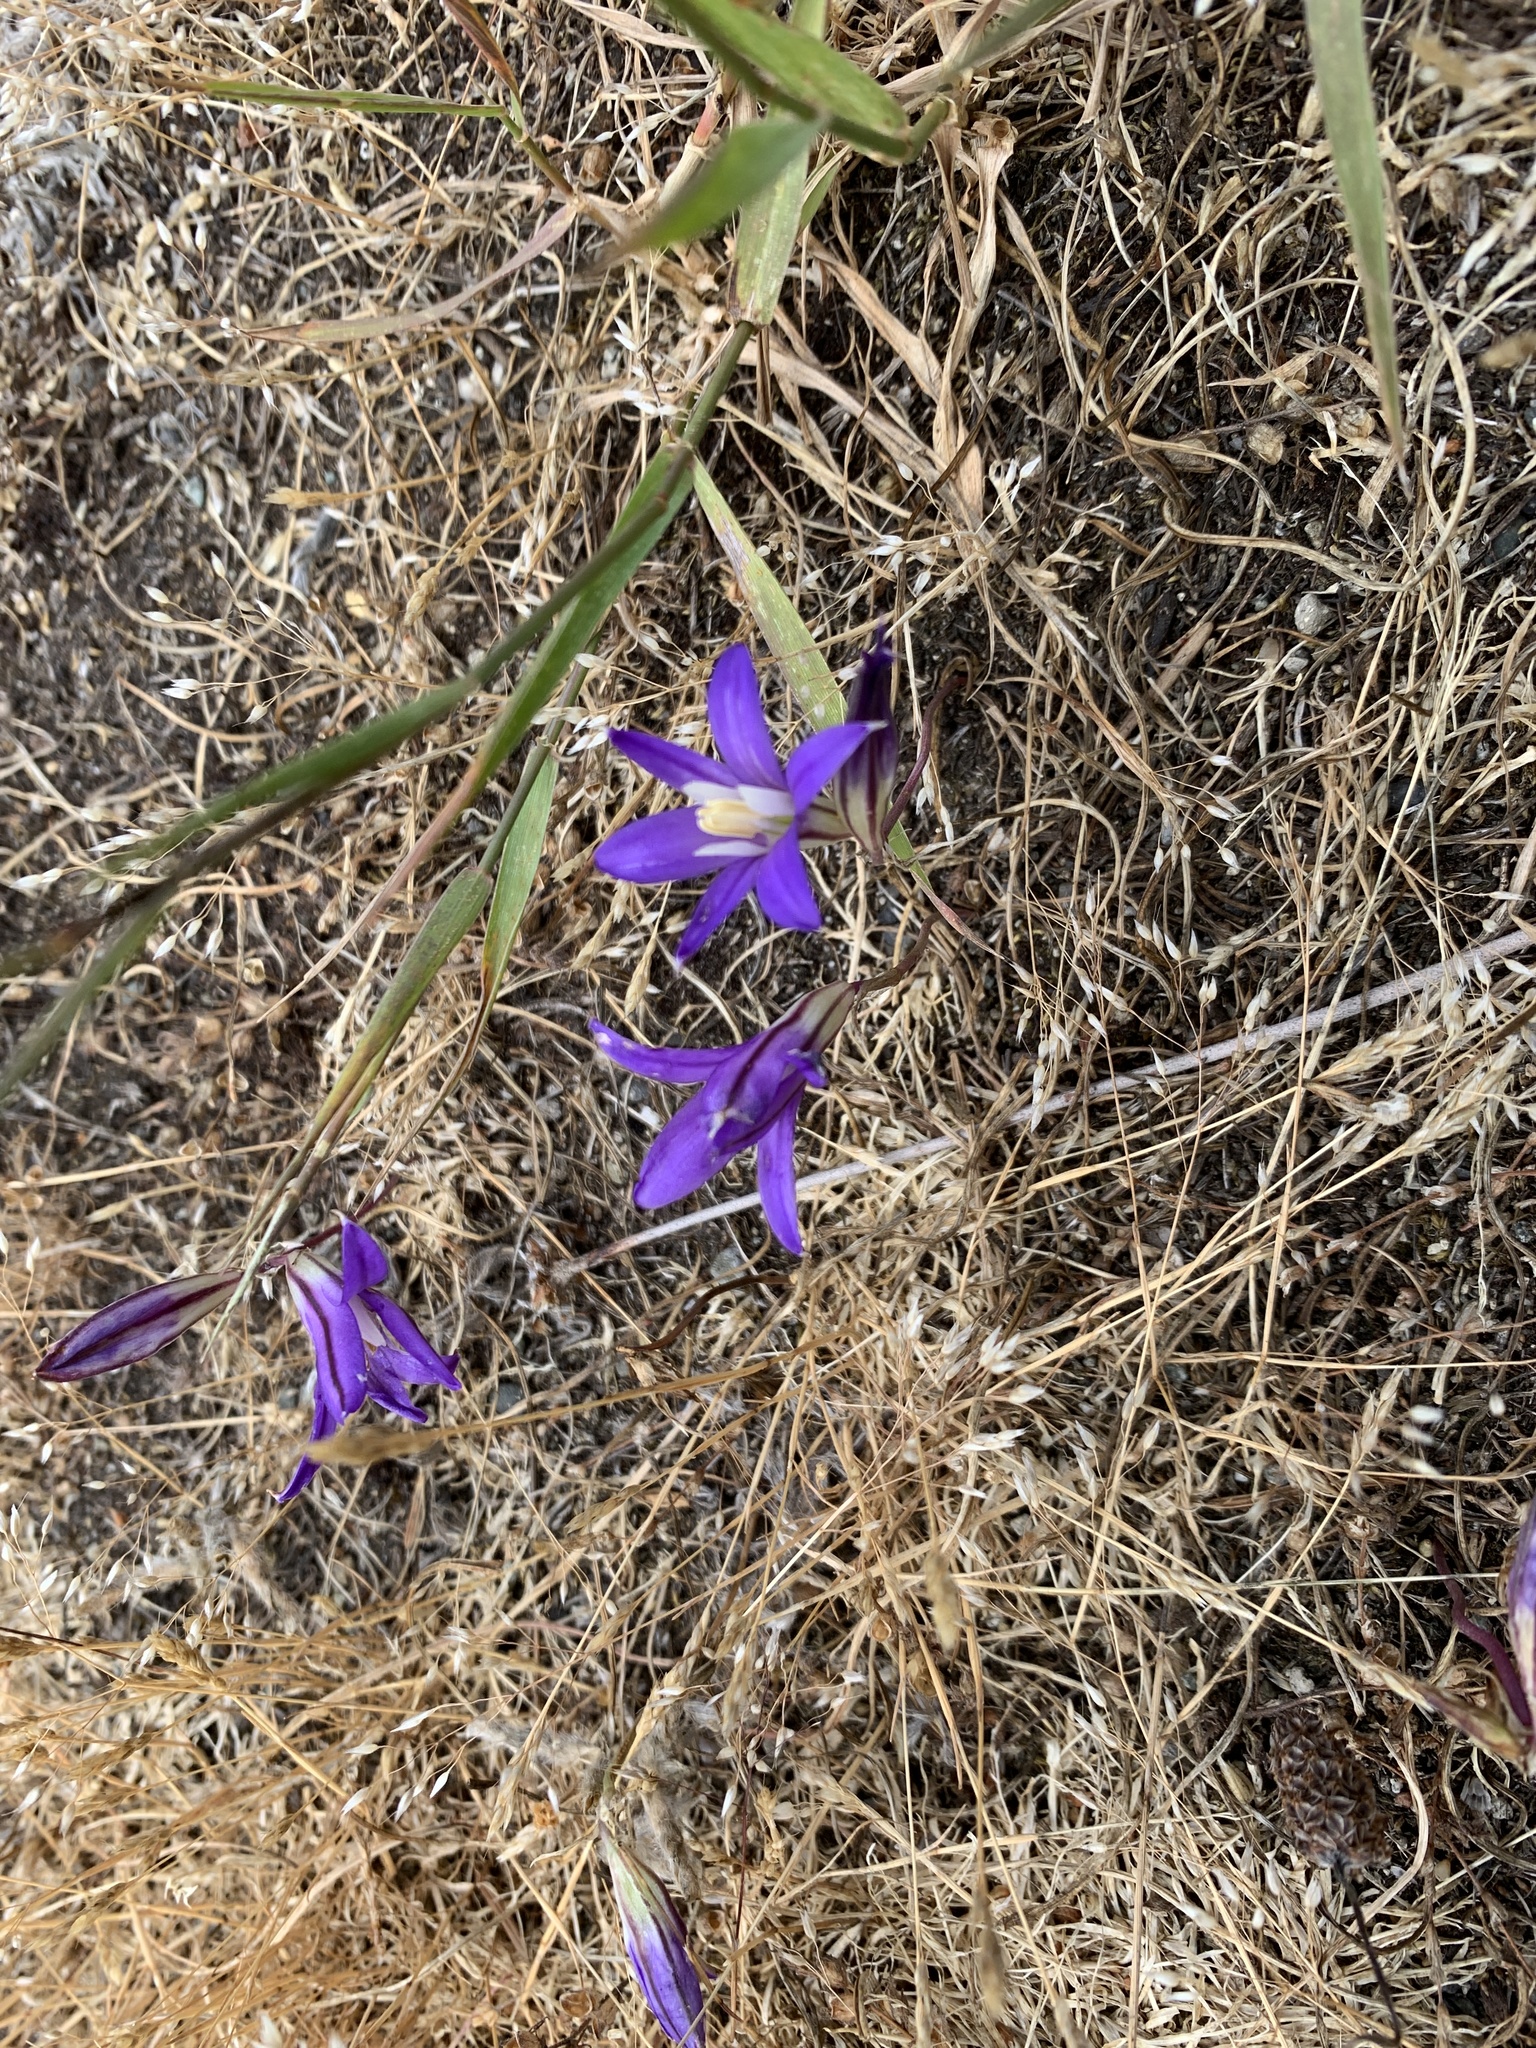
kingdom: Plantae
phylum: Tracheophyta
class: Liliopsida
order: Asparagales
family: Asparagaceae
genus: Brodiaea
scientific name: Brodiaea coronaria
